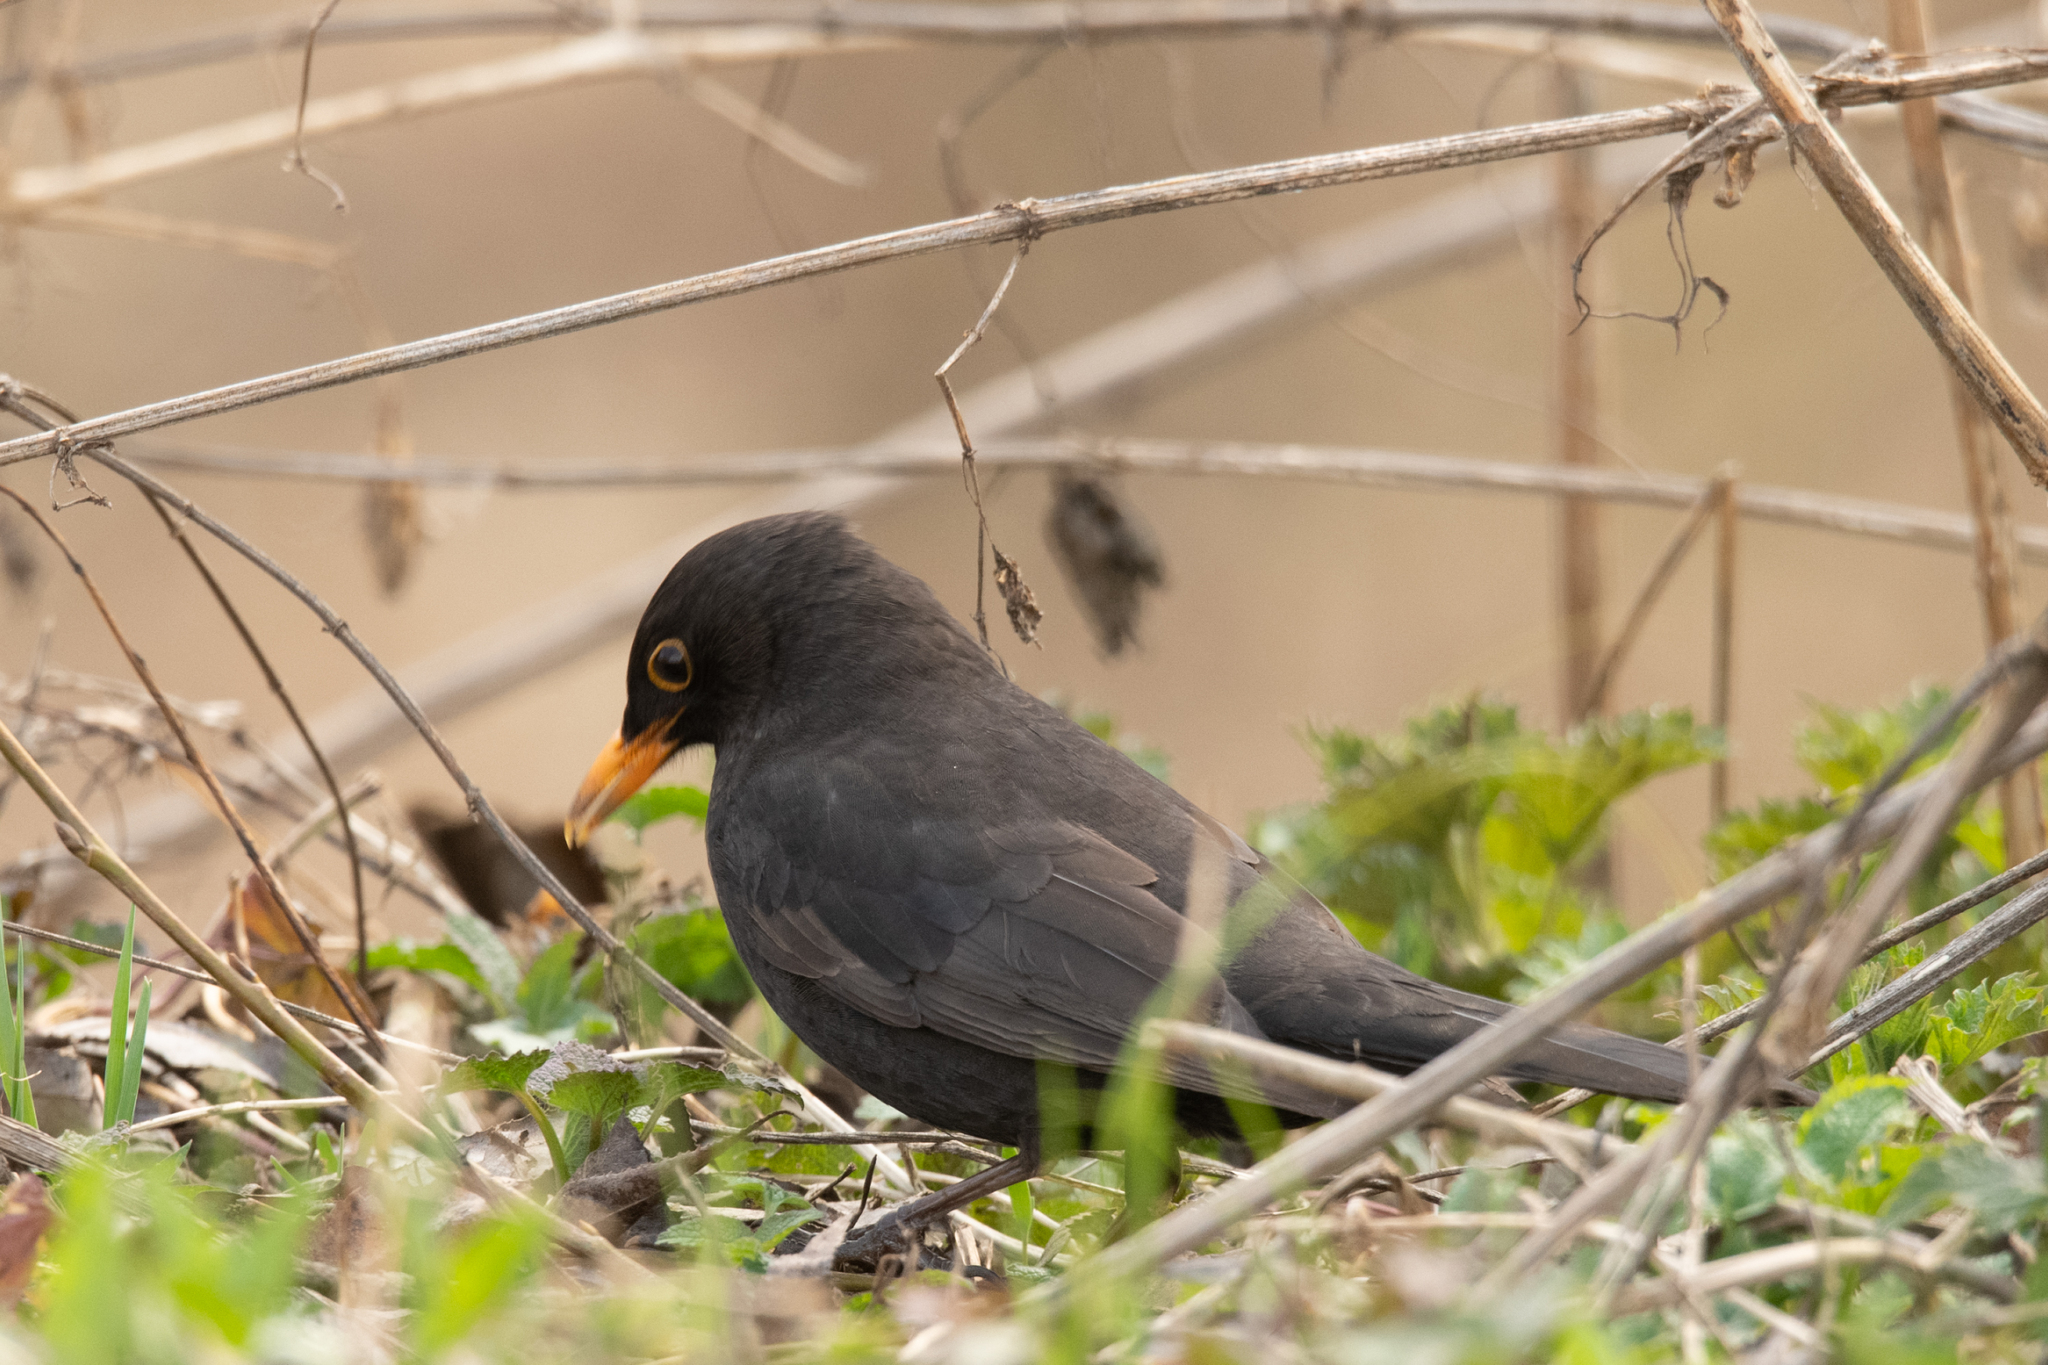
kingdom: Animalia
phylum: Chordata
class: Aves
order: Passeriformes
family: Turdidae
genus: Turdus
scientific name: Turdus merula
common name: Common blackbird
